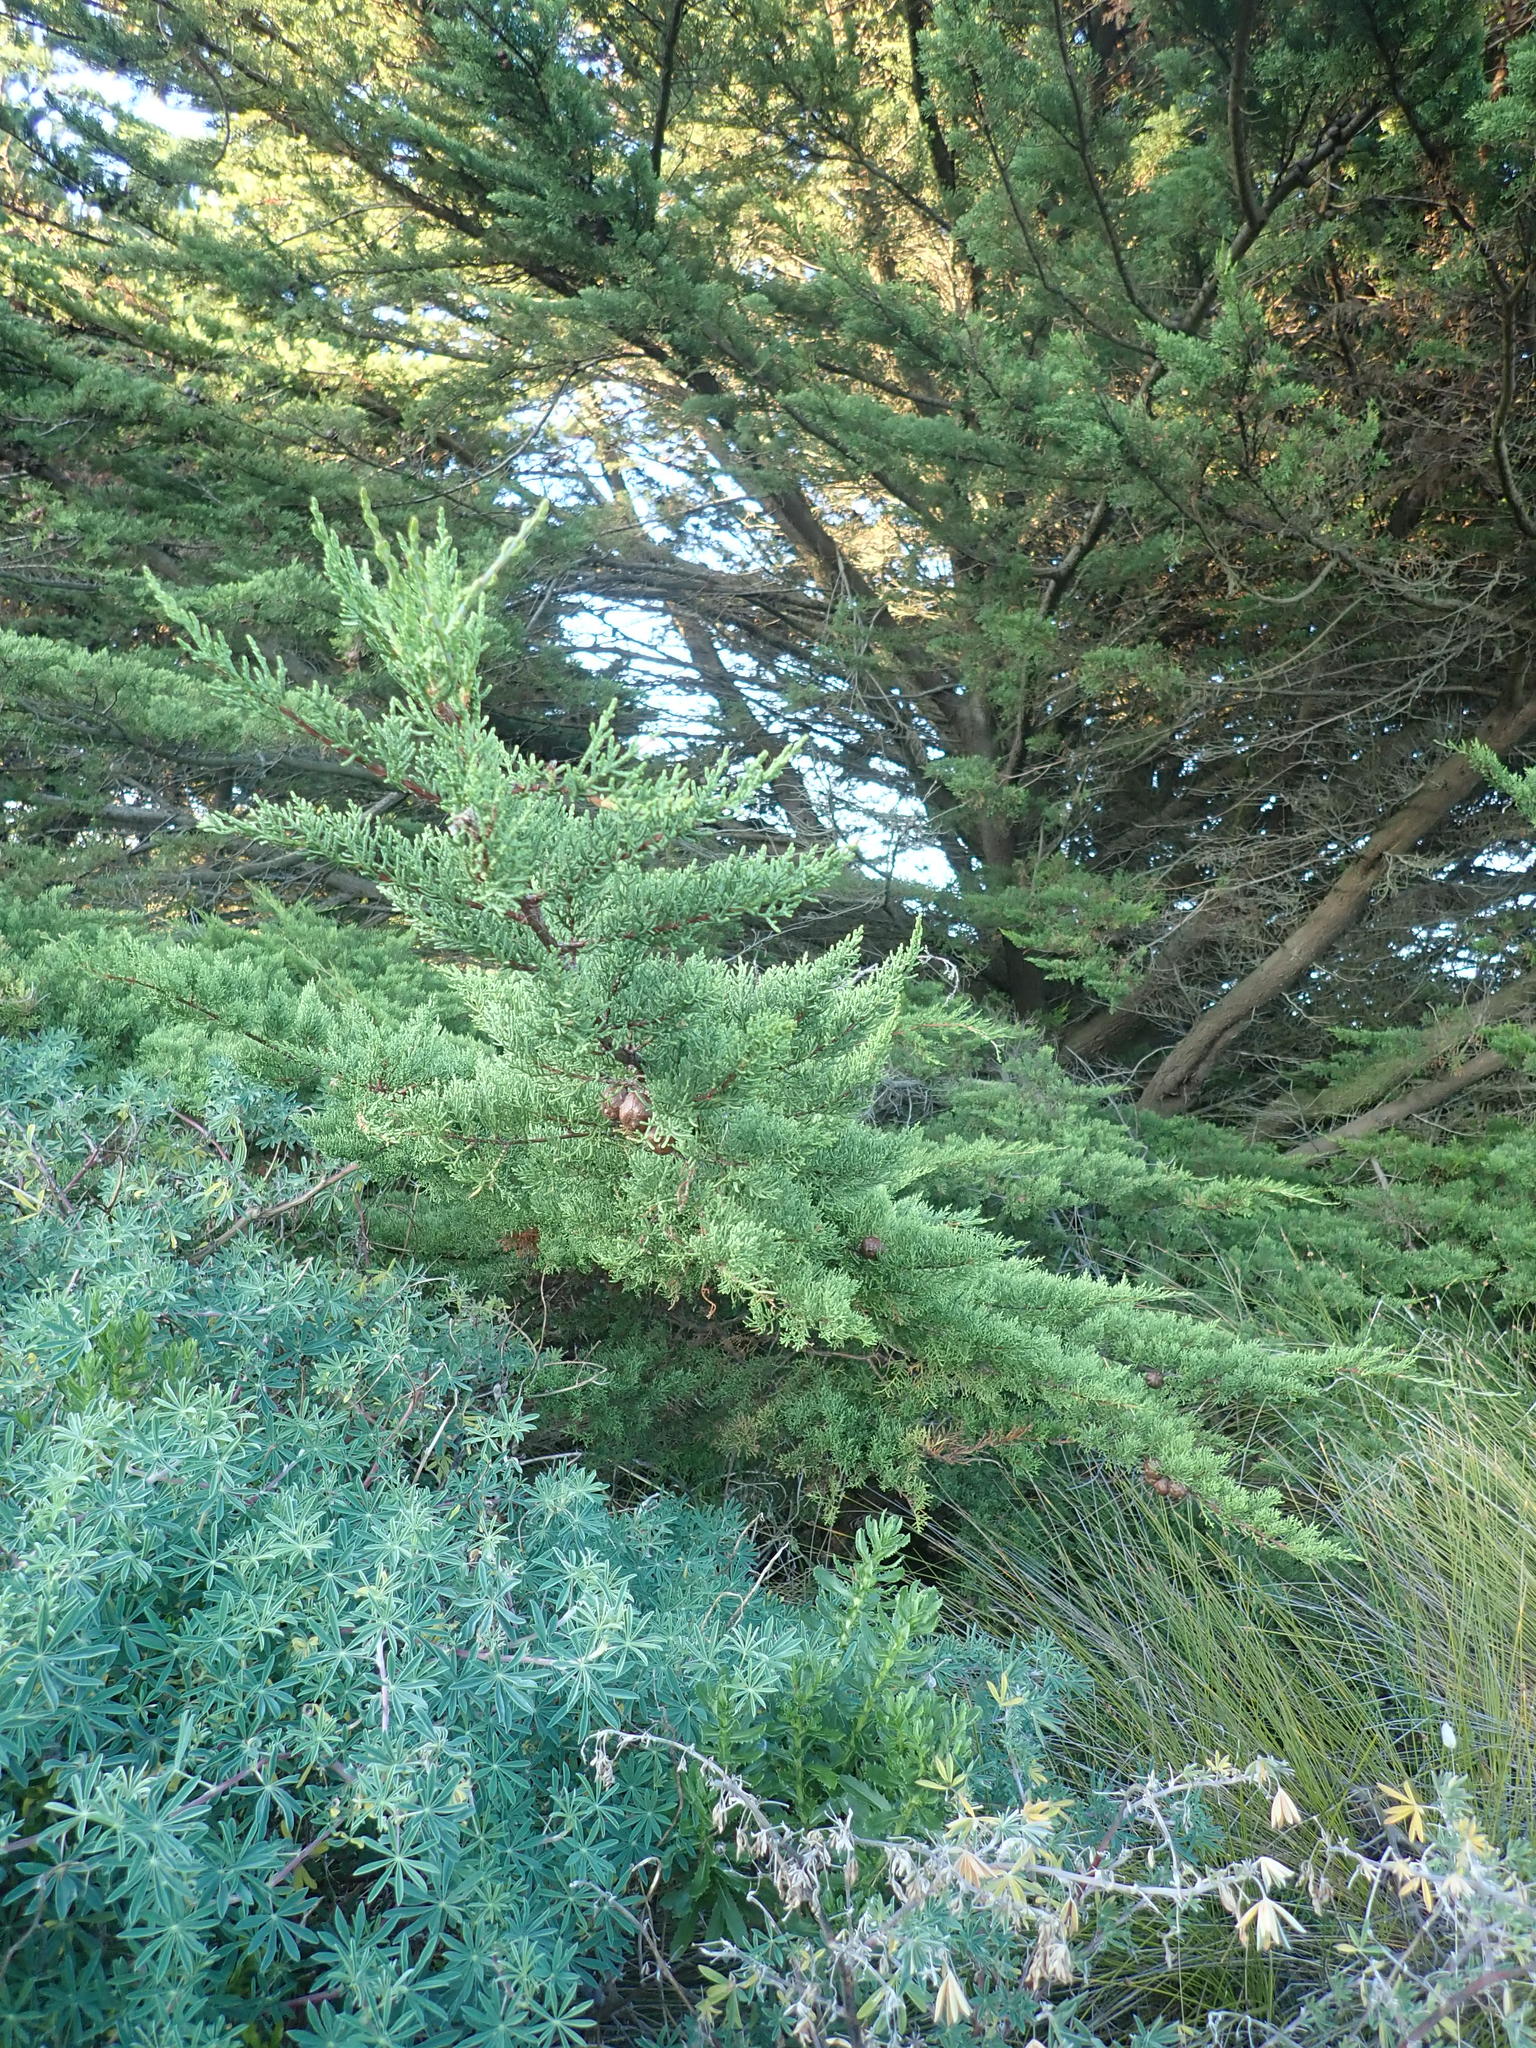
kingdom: Plantae
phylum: Tracheophyta
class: Pinopsida
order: Pinales
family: Cupressaceae
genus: Cupressus
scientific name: Cupressus macrocarpa
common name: Monterey cypress
